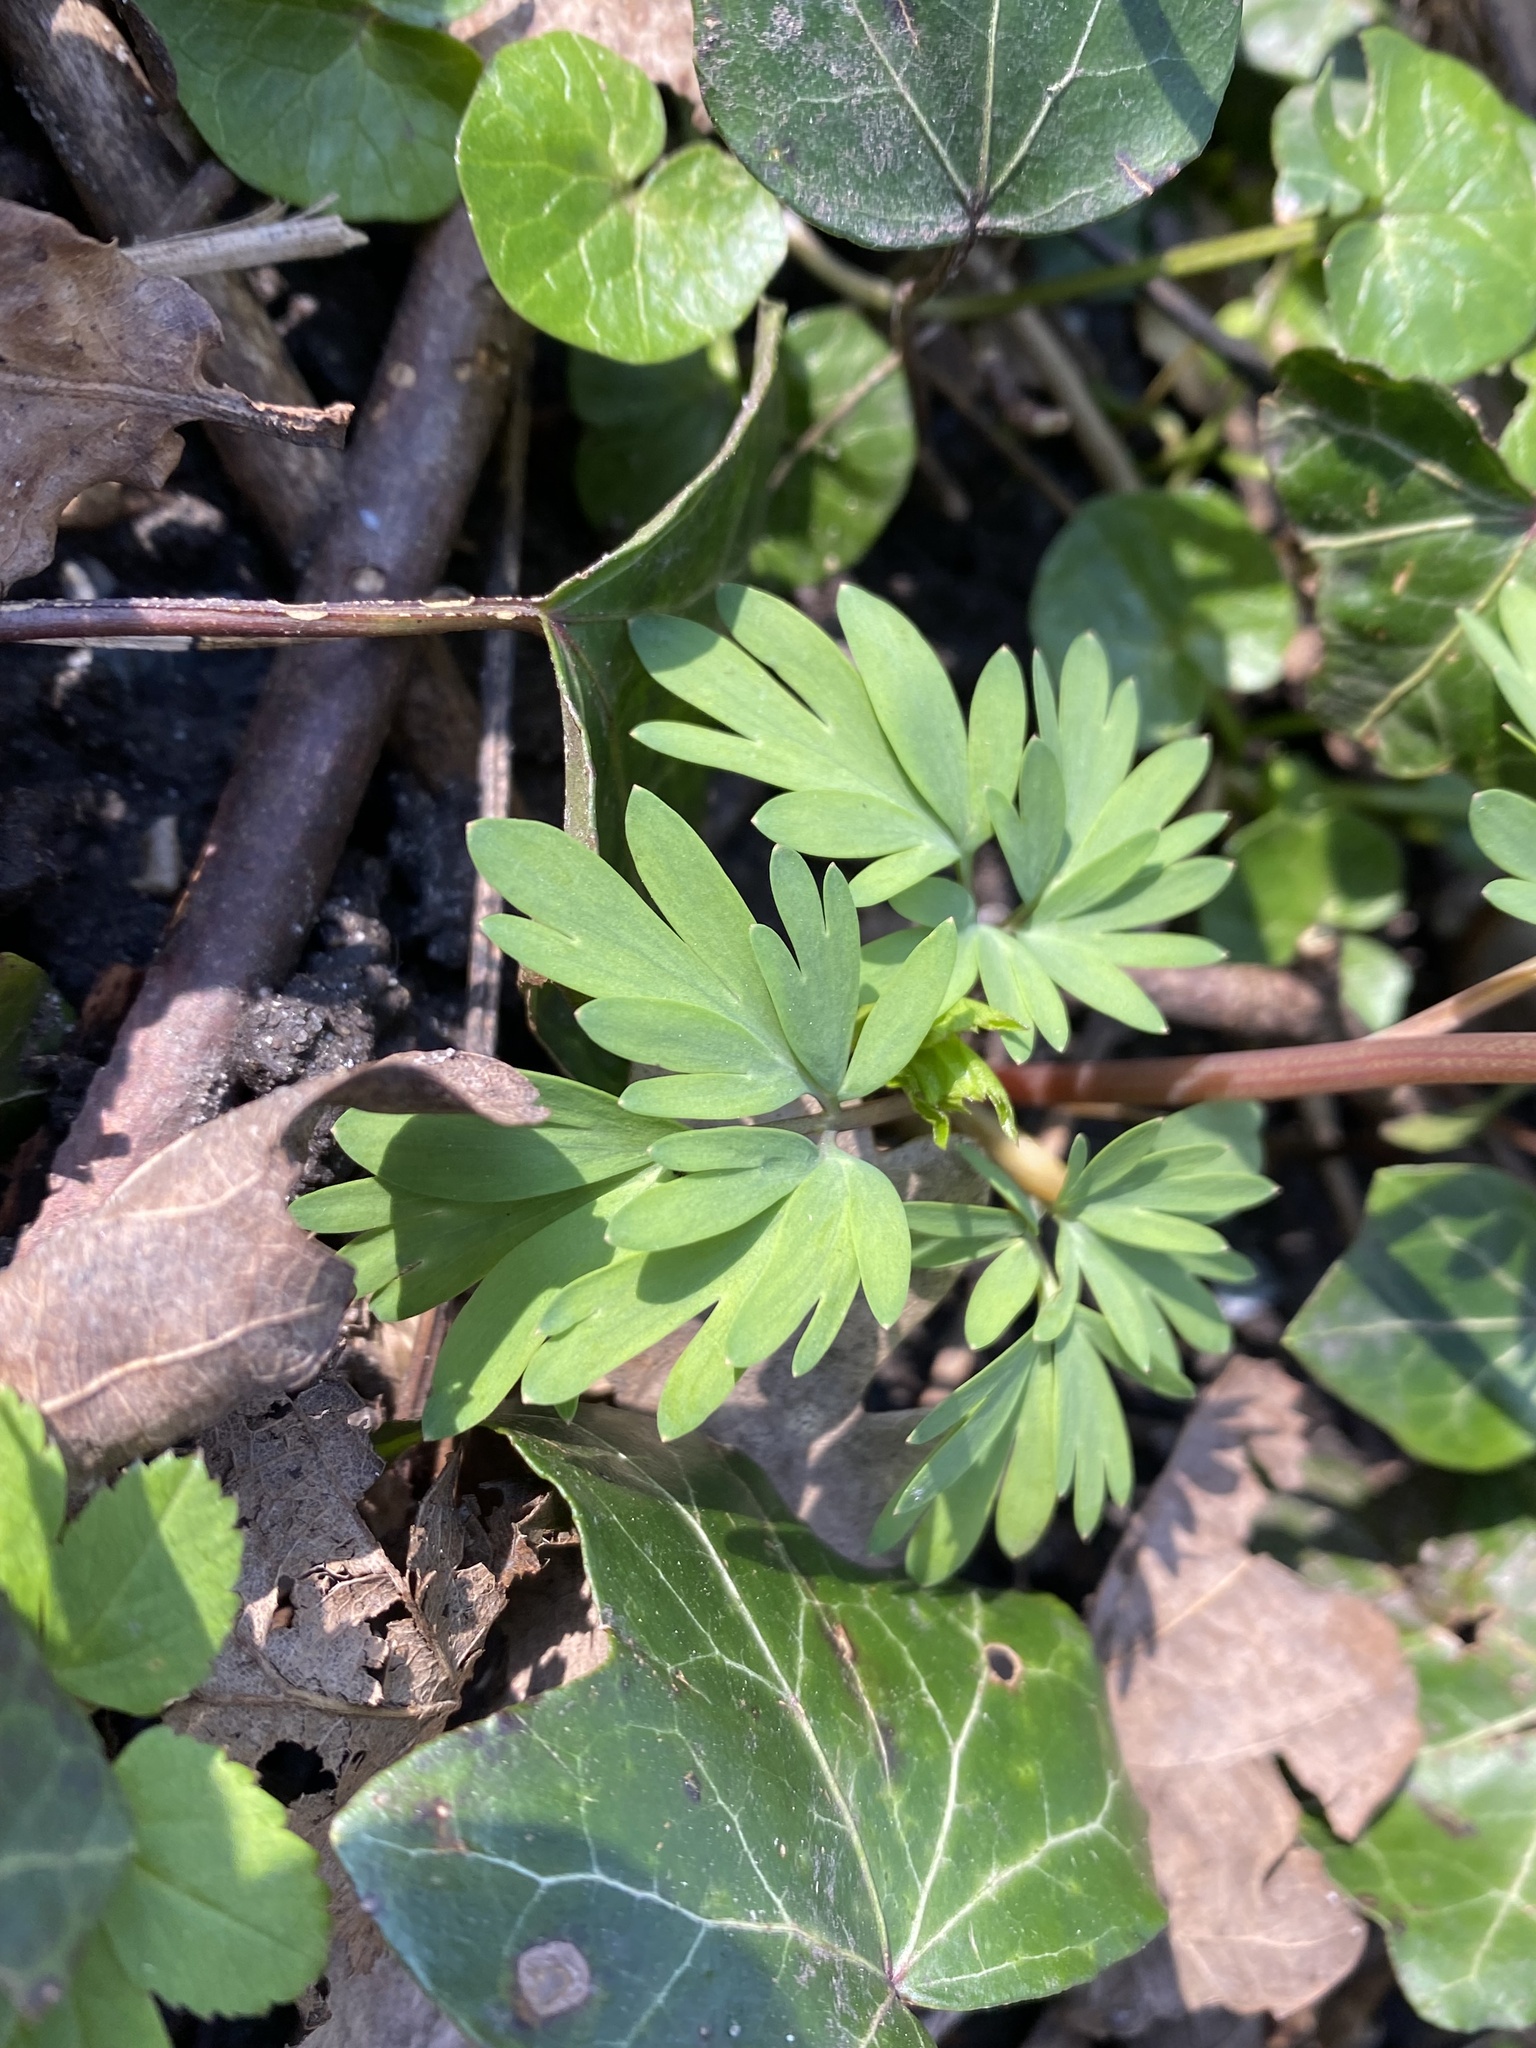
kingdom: Plantae
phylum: Tracheophyta
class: Magnoliopsida
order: Ranunculales
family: Papaveraceae
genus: Corydalis
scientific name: Corydalis solida
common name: Bird-in-a-bush
